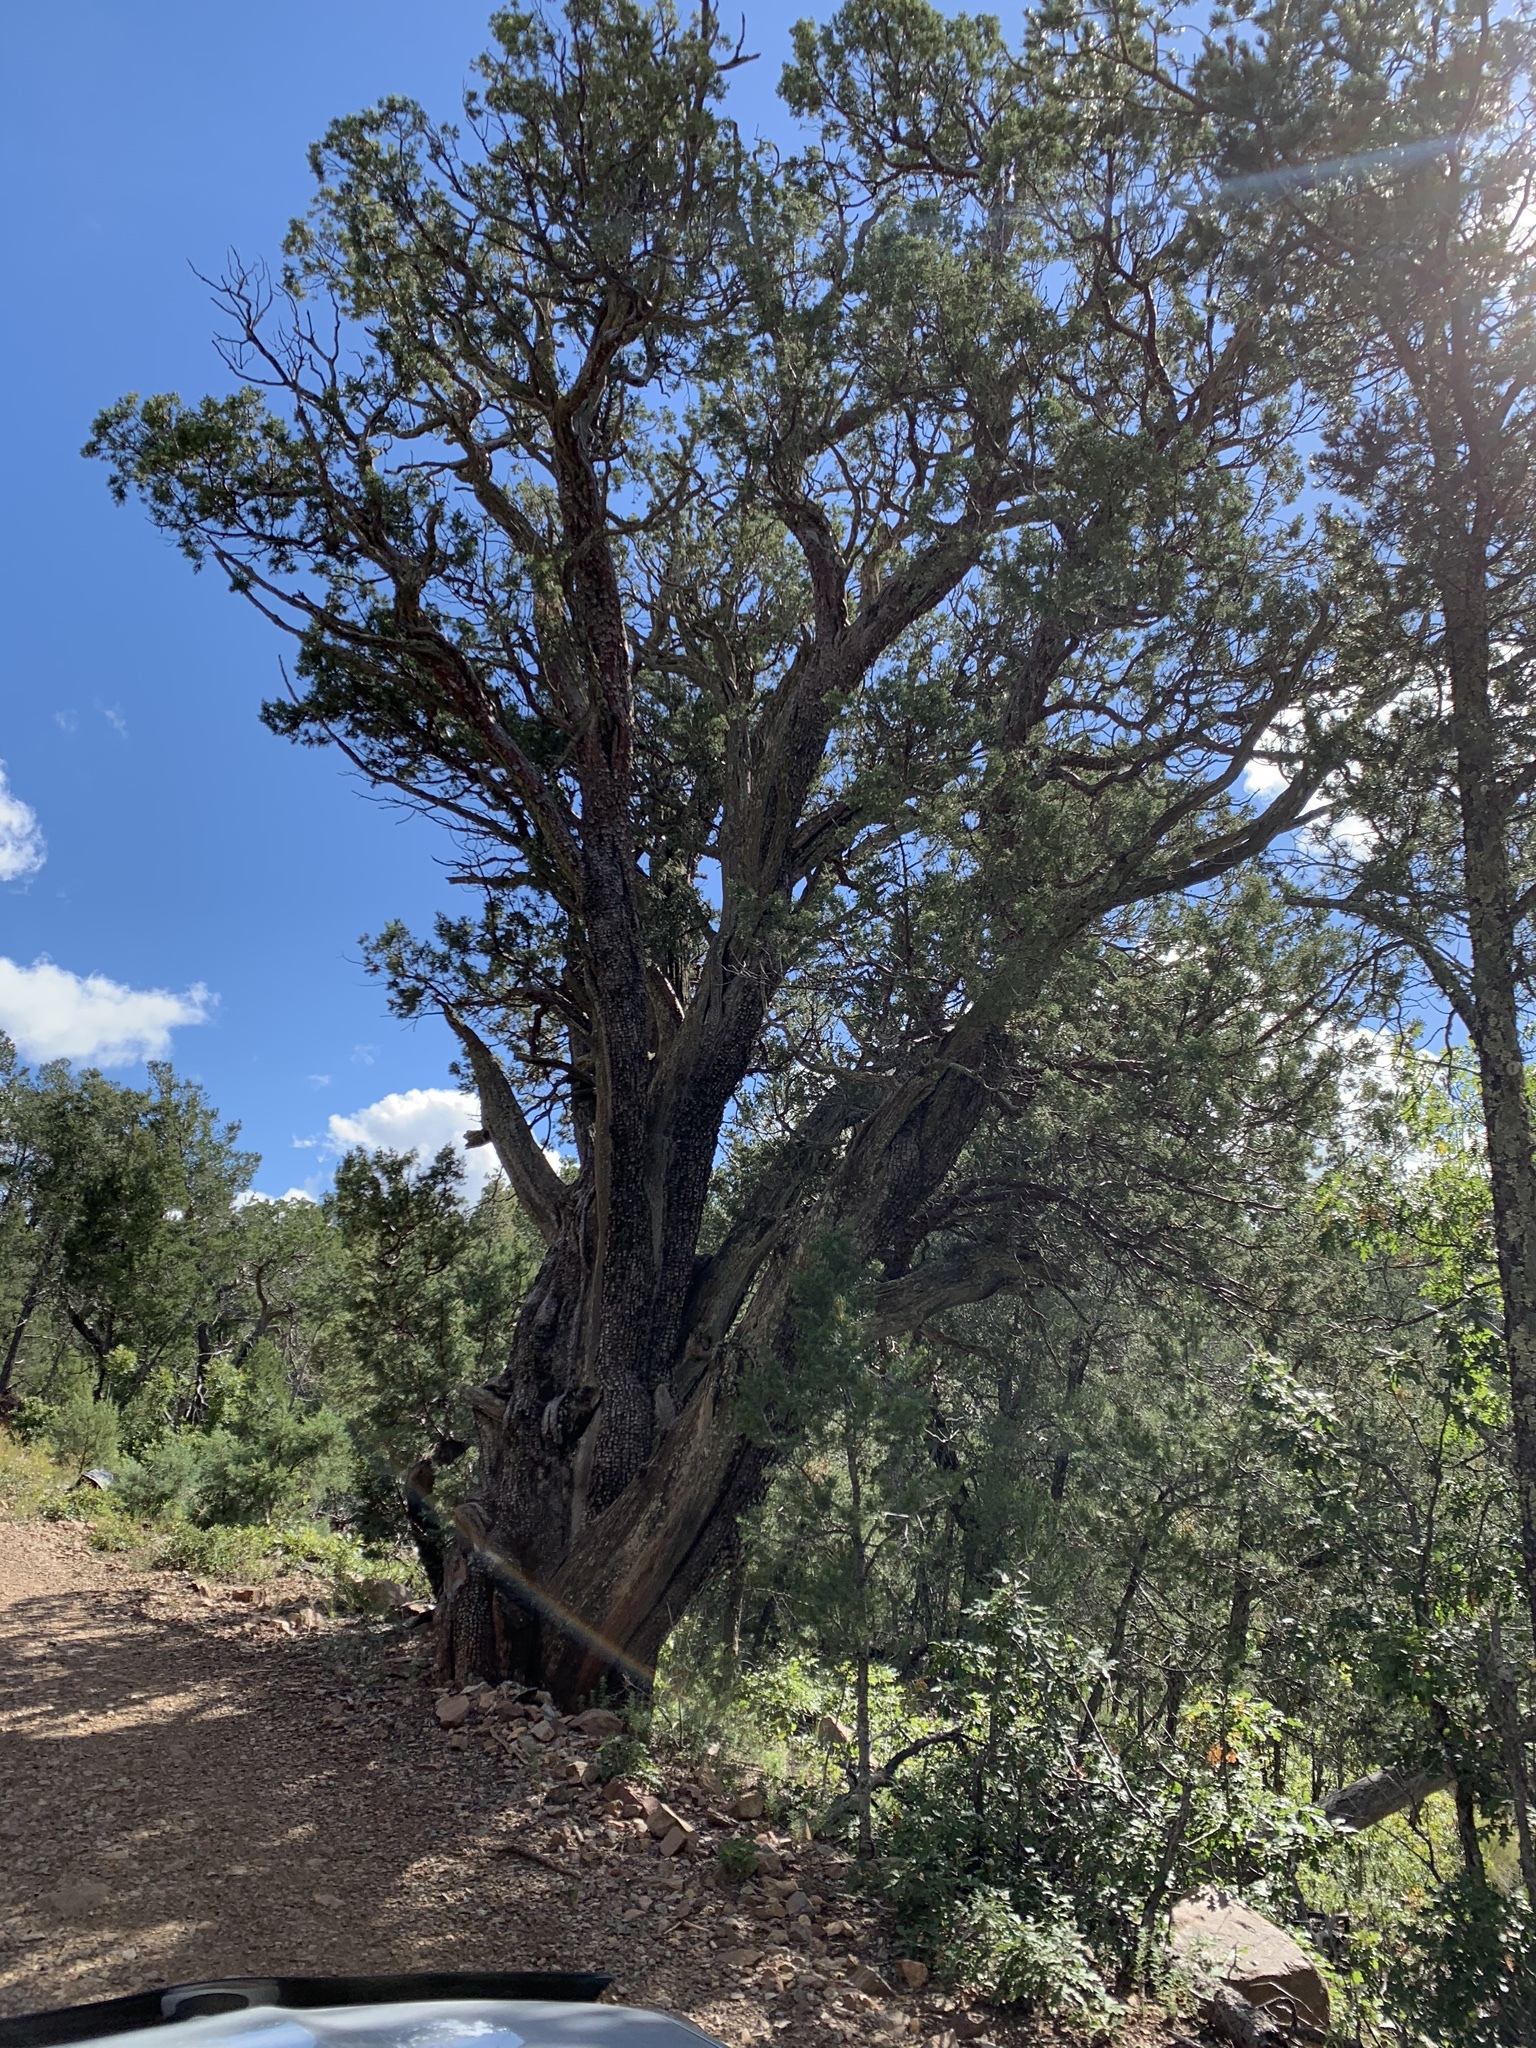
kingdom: Plantae
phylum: Tracheophyta
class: Pinopsida
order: Pinales
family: Pinaceae
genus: Pinus
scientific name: Pinus edulis
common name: Colorado pinyon
